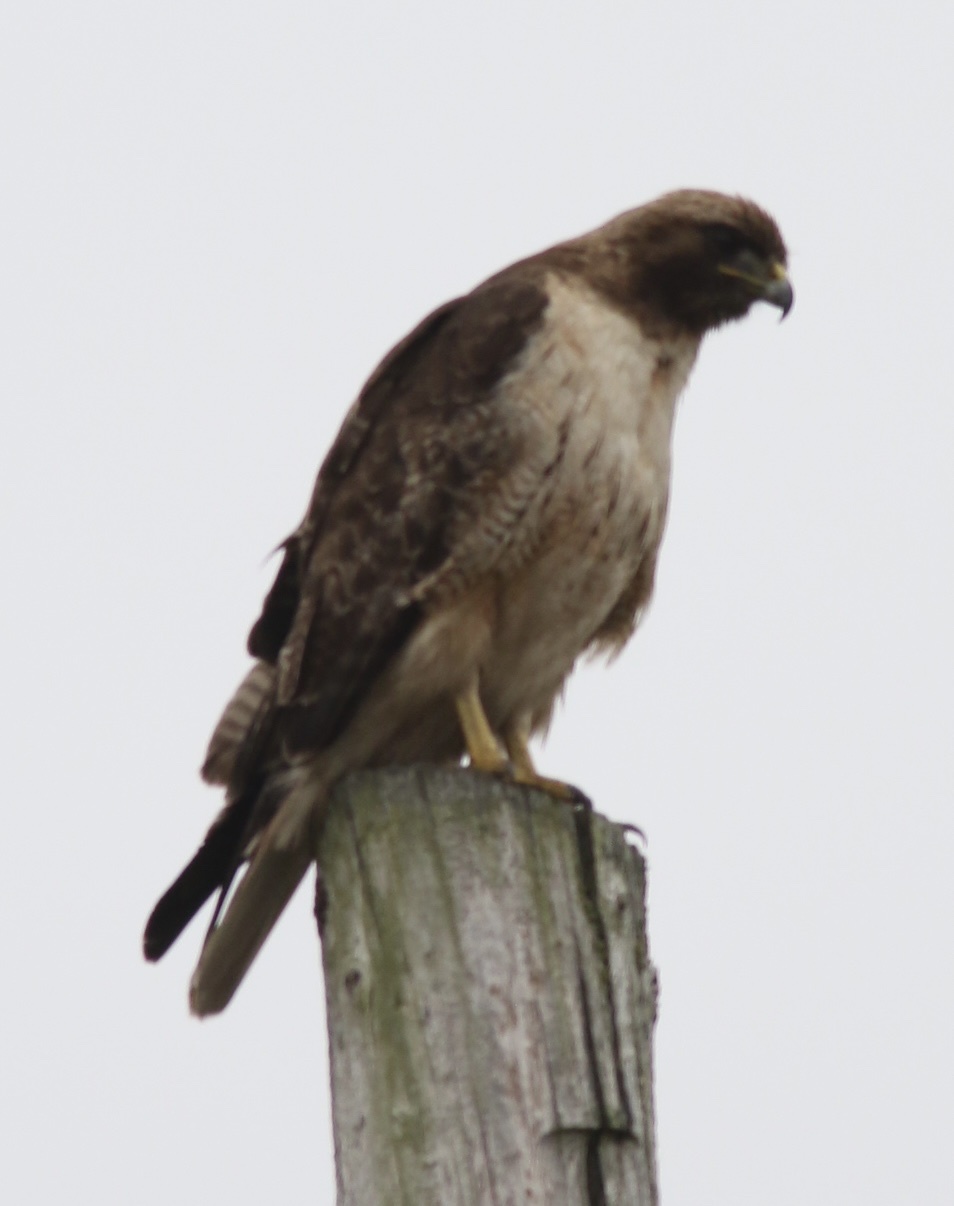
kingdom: Animalia
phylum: Chordata
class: Aves
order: Accipitriformes
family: Accipitridae
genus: Buteo
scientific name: Buteo jamaicensis
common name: Red-tailed hawk
